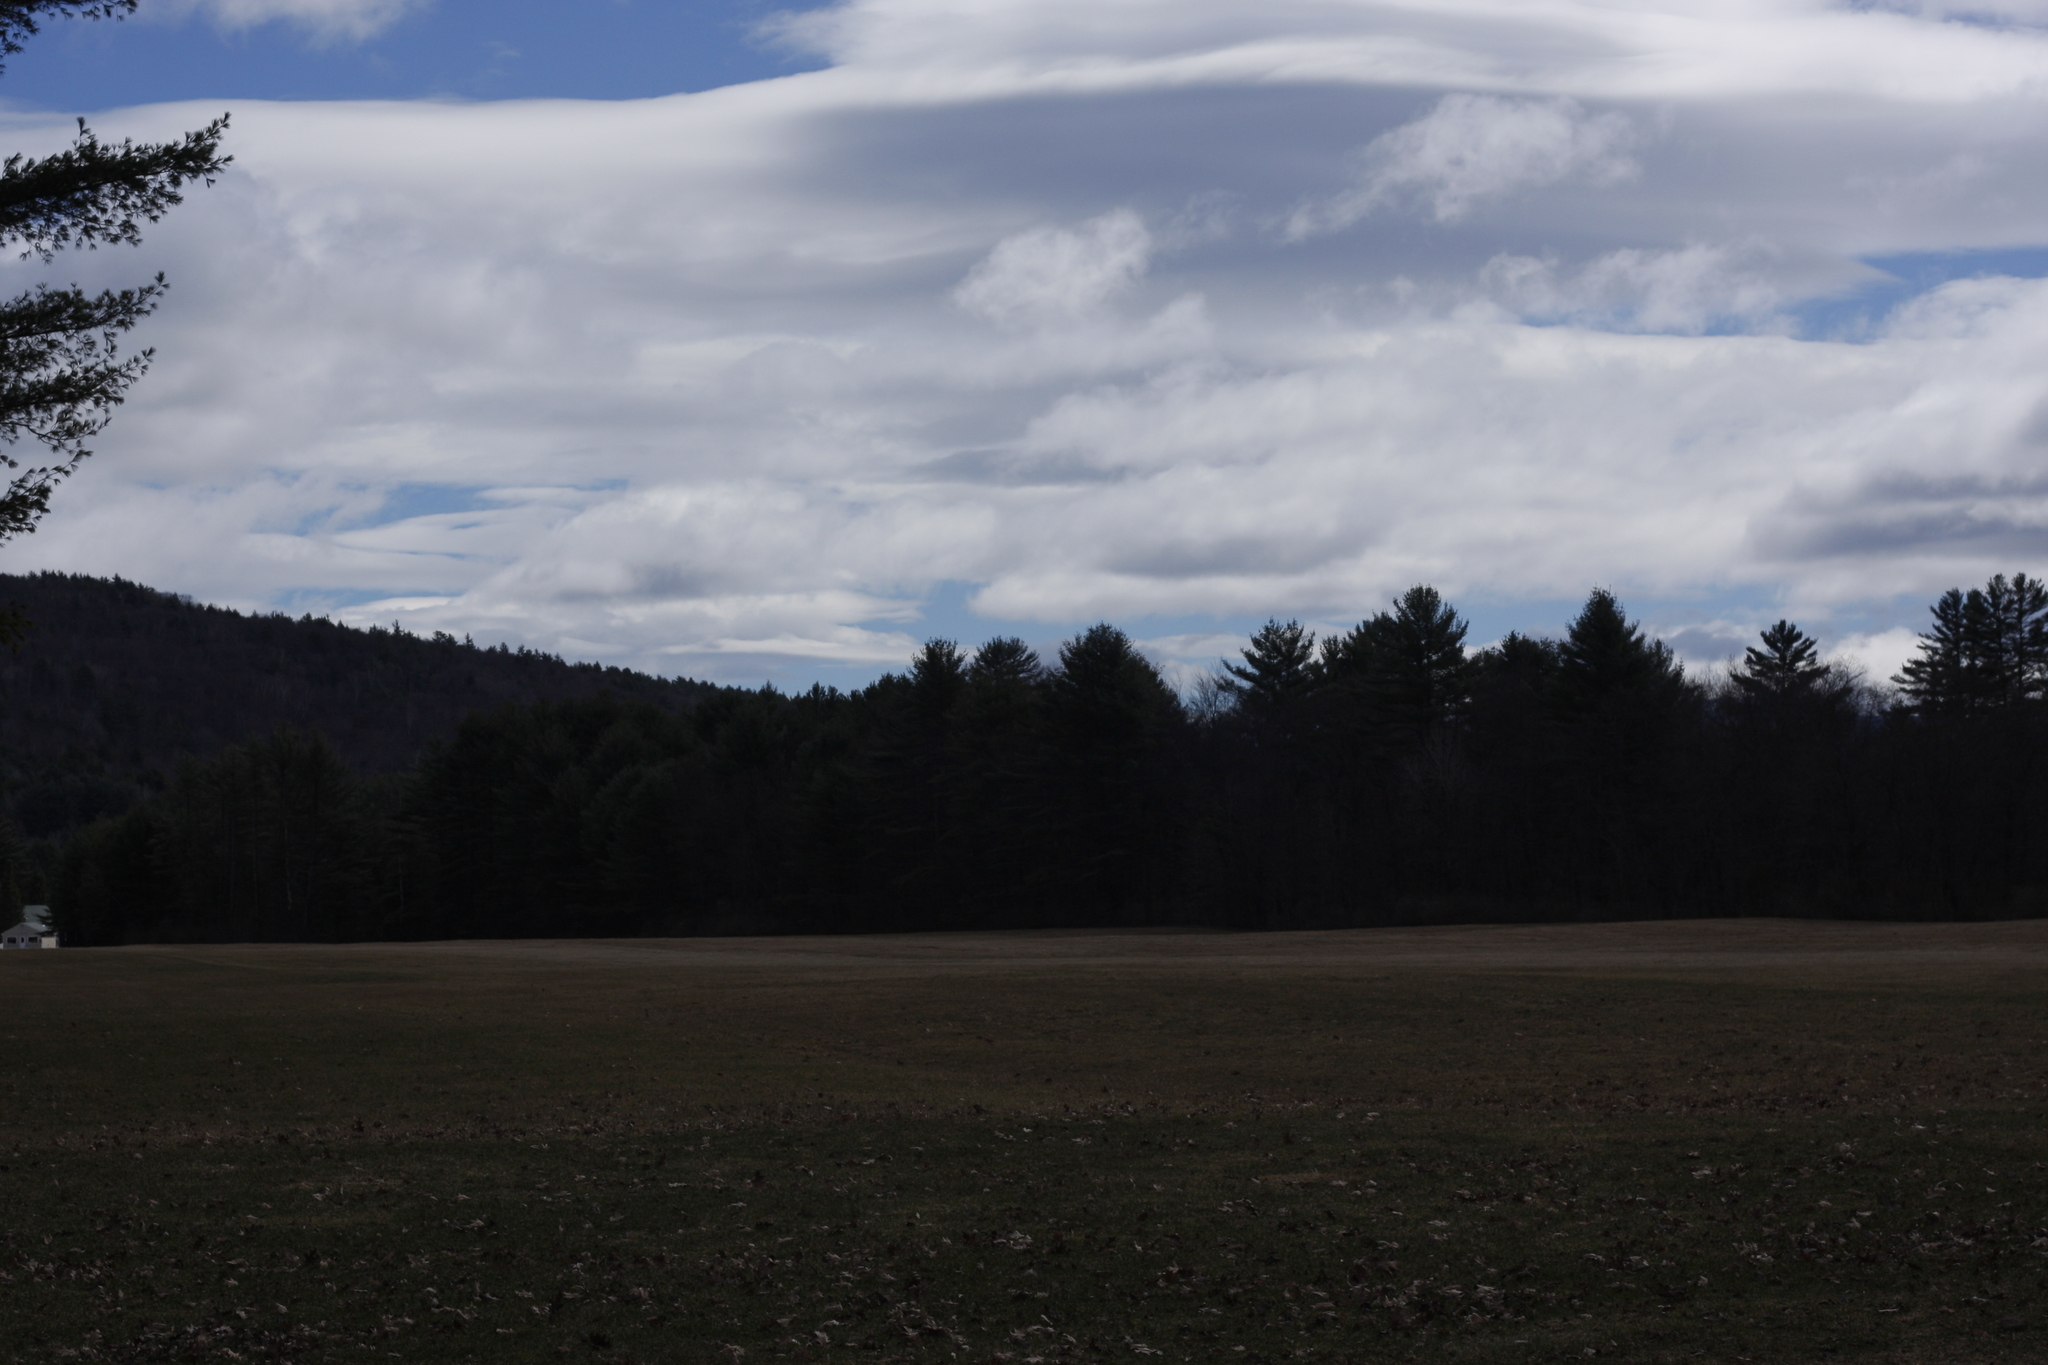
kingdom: Plantae
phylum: Tracheophyta
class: Pinopsida
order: Pinales
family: Pinaceae
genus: Pinus
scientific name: Pinus strobus
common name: Weymouth pine
